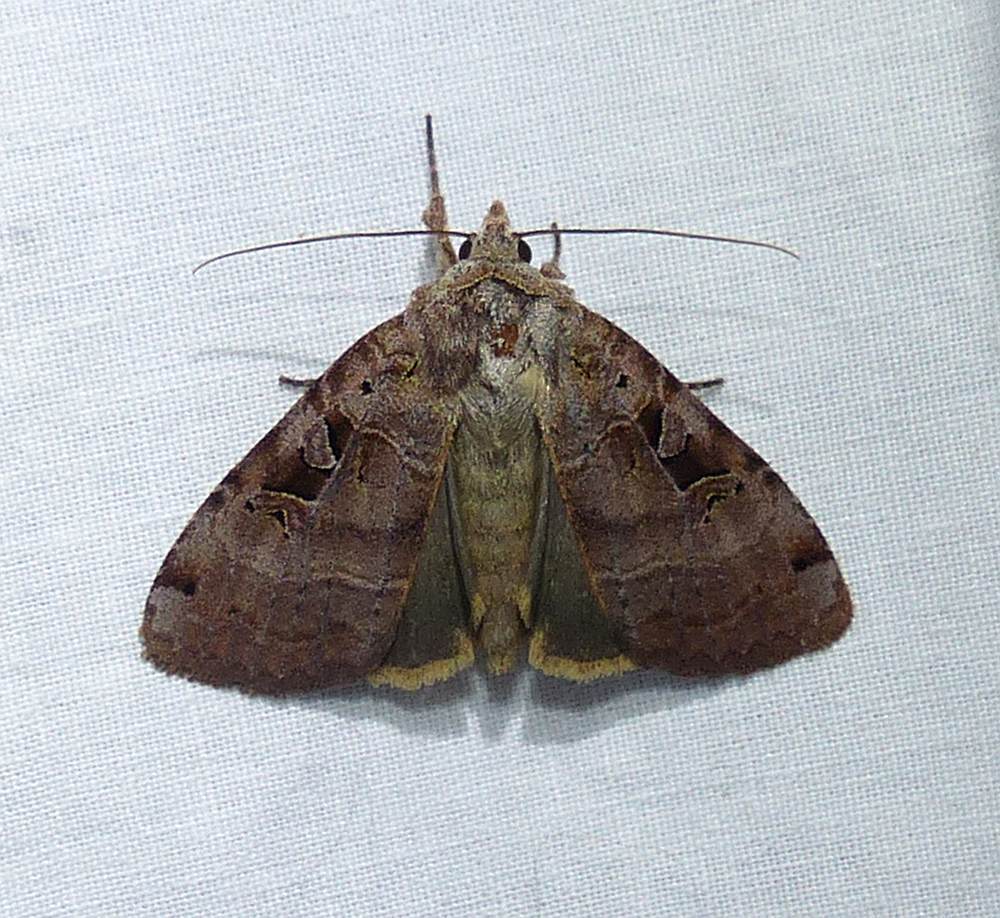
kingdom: Animalia
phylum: Arthropoda
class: Insecta
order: Lepidoptera
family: Noctuidae
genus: Xestia
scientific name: Xestia normaniana
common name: Norman's dart moth
